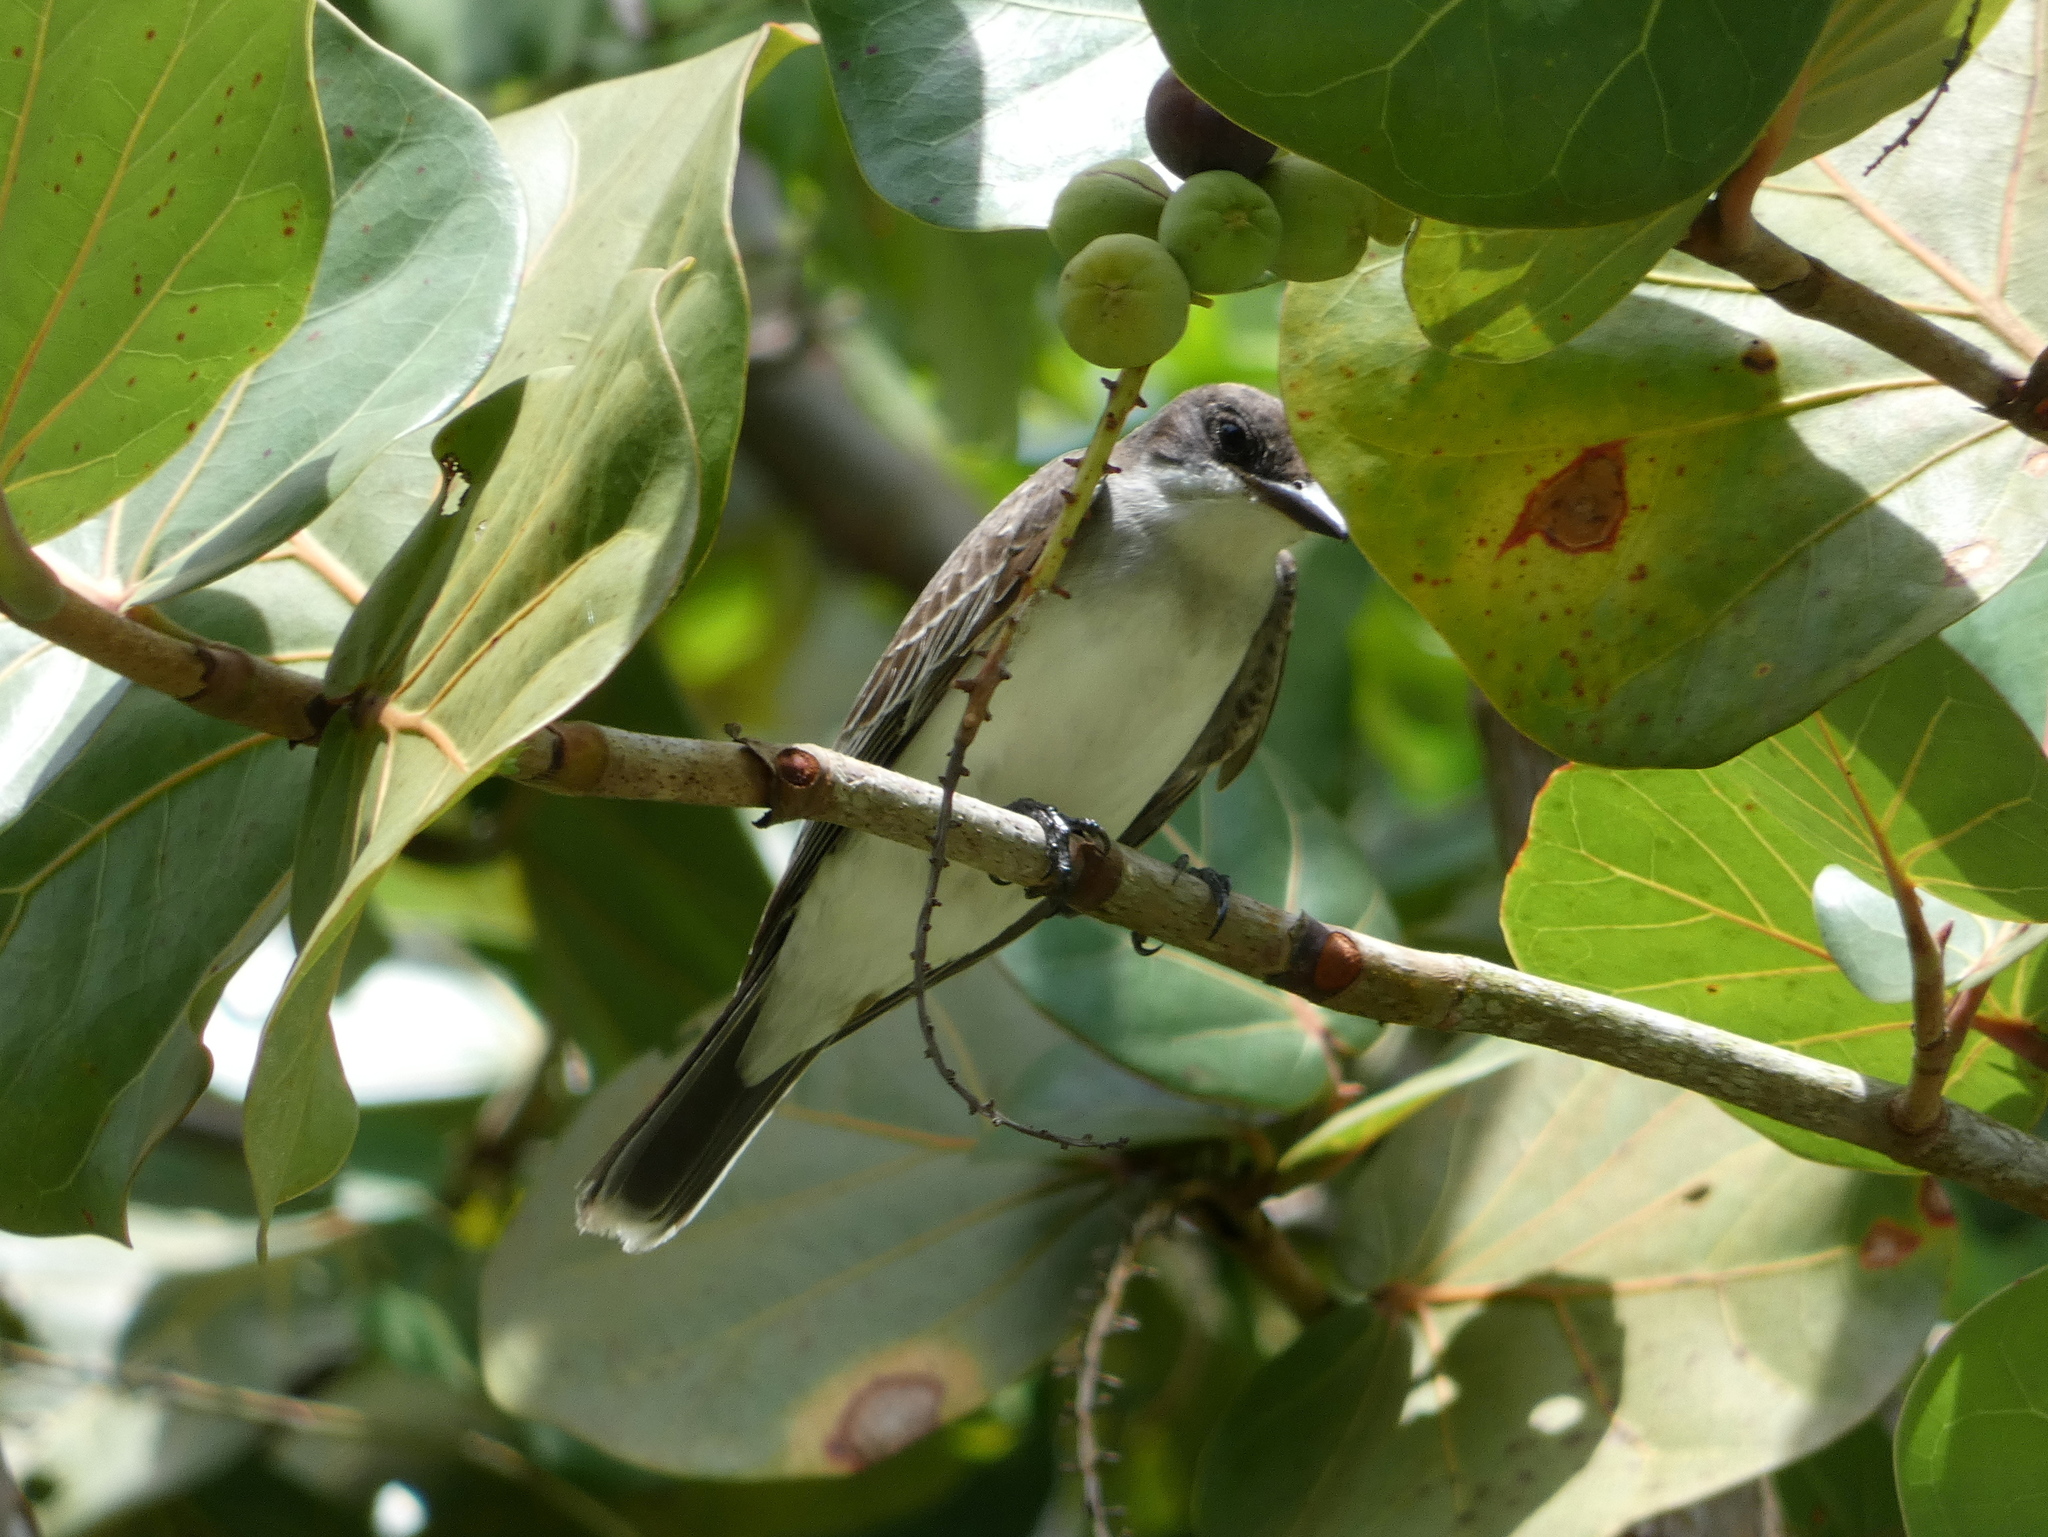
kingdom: Animalia
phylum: Chordata
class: Aves
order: Passeriformes
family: Tyrannidae
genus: Tyrannus
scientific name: Tyrannus tyrannus
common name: Eastern kingbird
